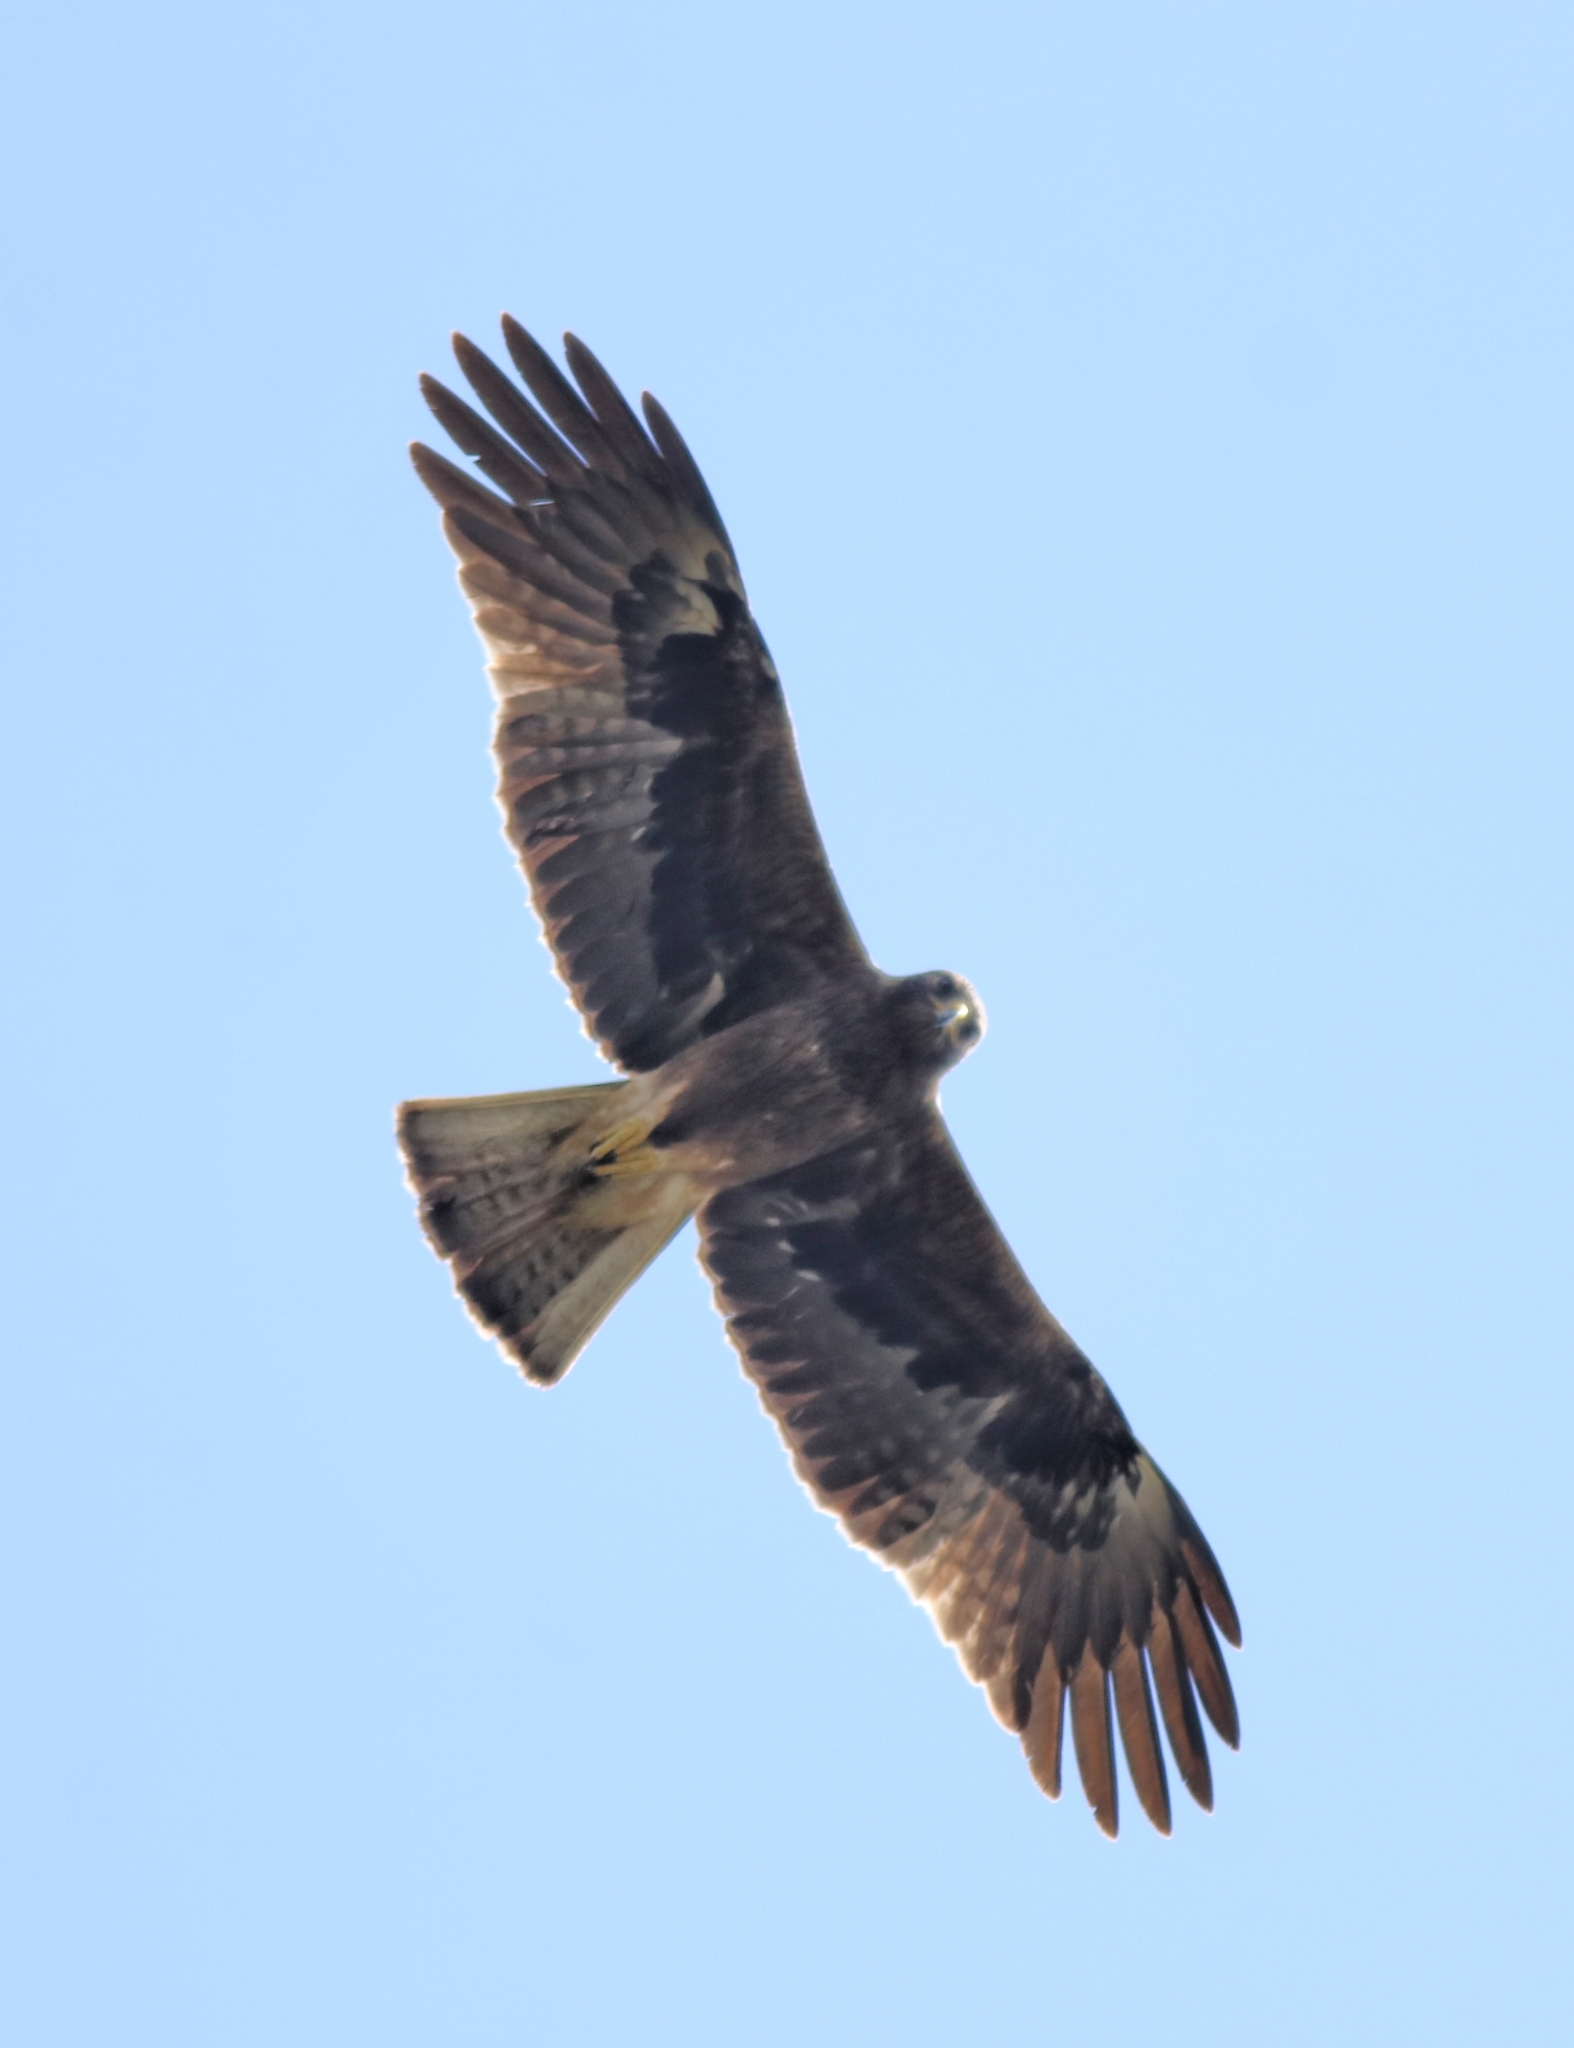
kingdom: Animalia
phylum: Chordata
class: Aves
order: Accipitriformes
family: Accipitridae
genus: Hieraaetus
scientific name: Hieraaetus pennatus
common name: Booted eagle
